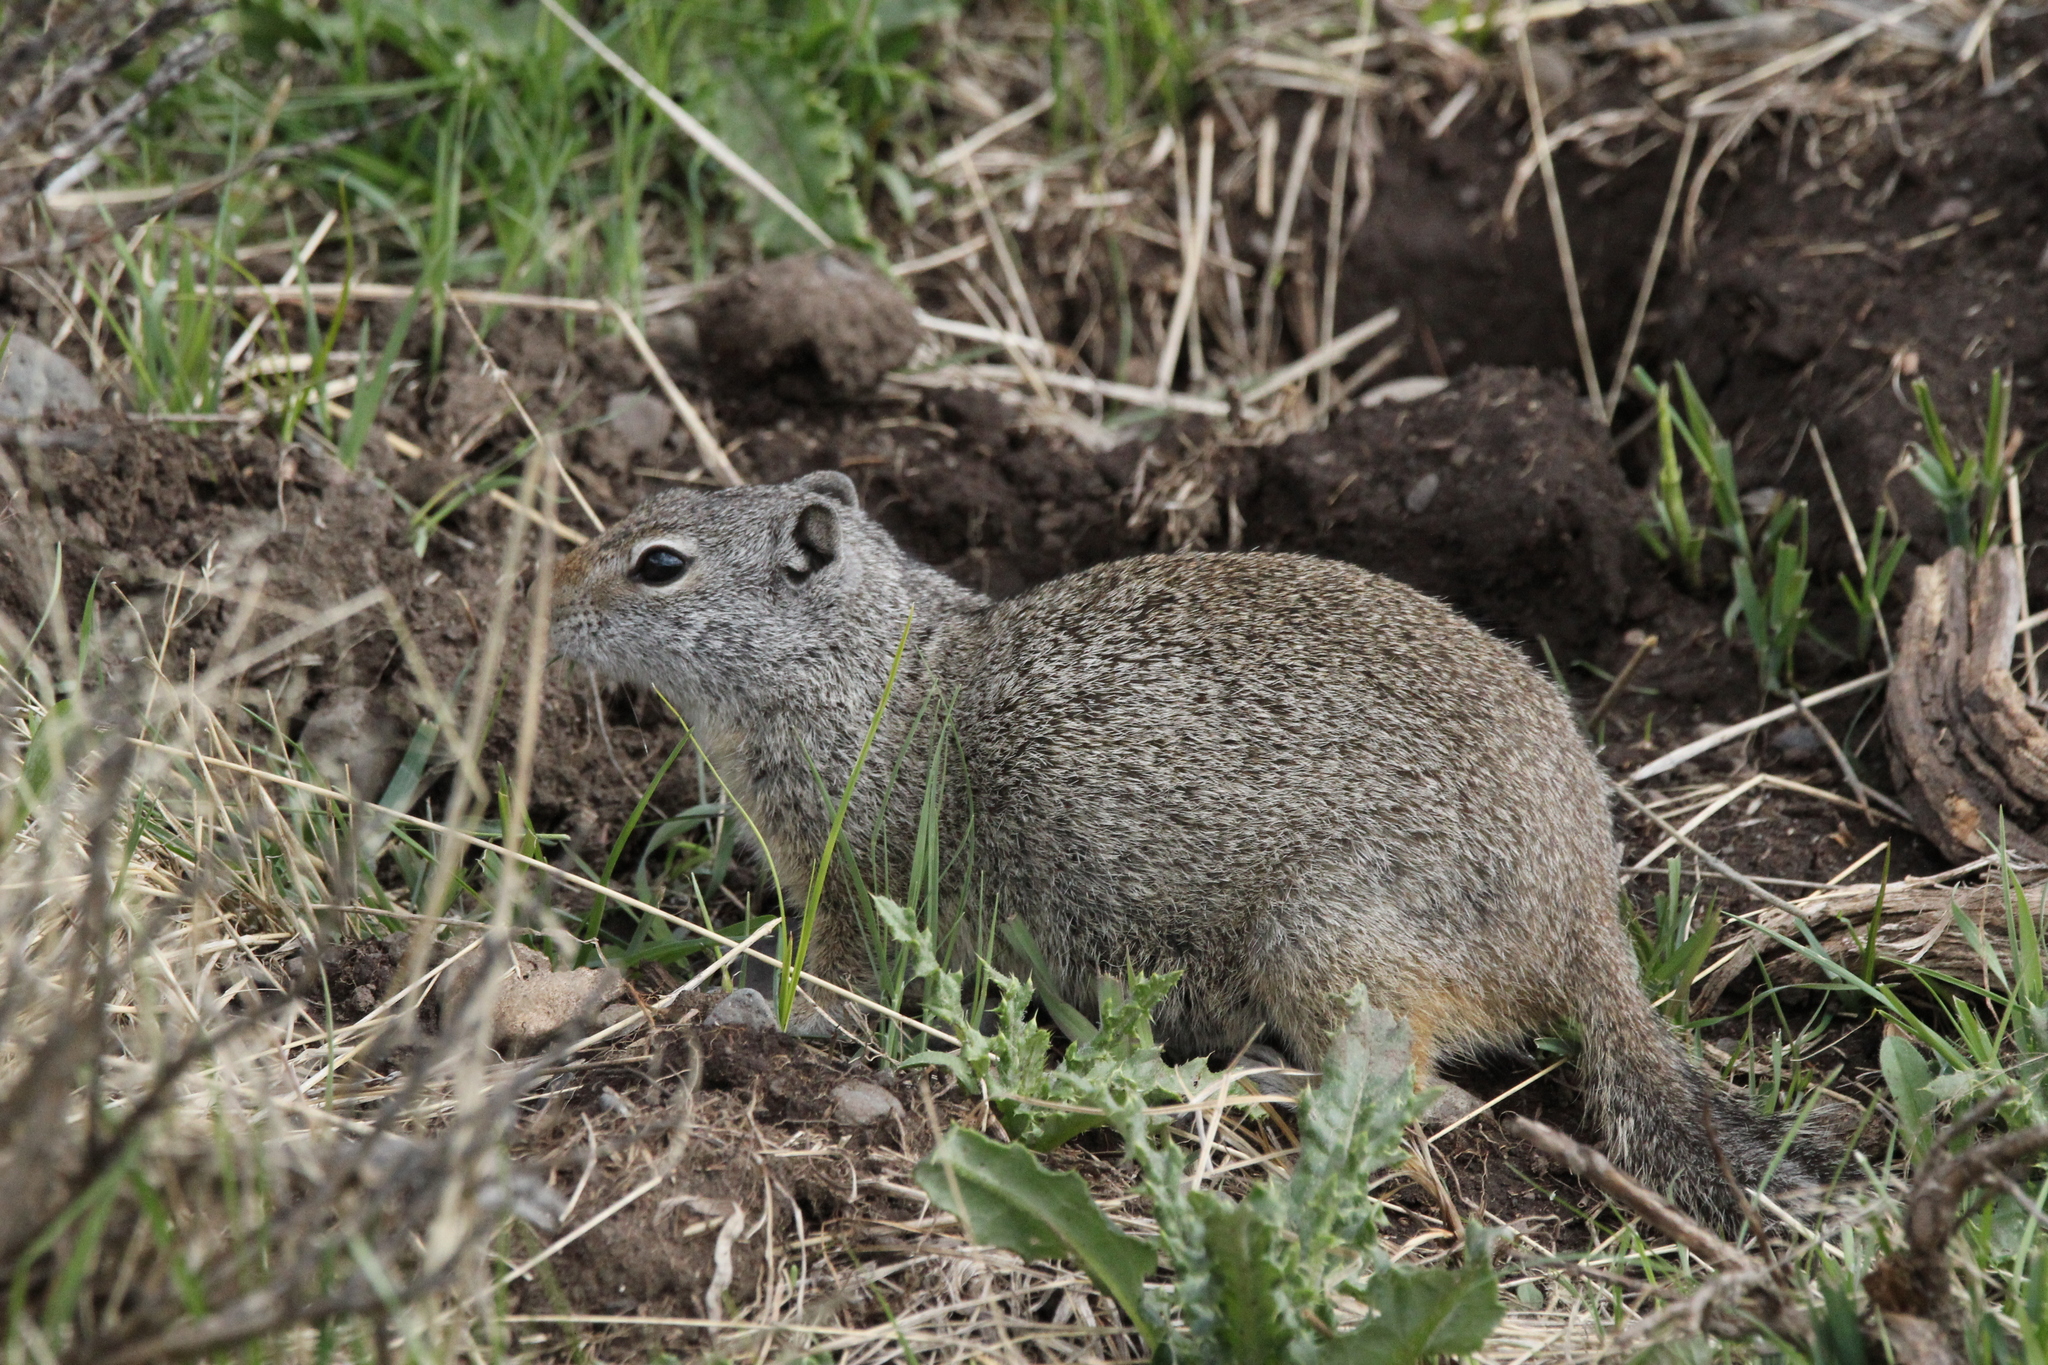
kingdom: Animalia
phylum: Chordata
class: Mammalia
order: Rodentia
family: Sciuridae
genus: Urocitellus
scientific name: Urocitellus armatus
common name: Uinta ground squirrel
